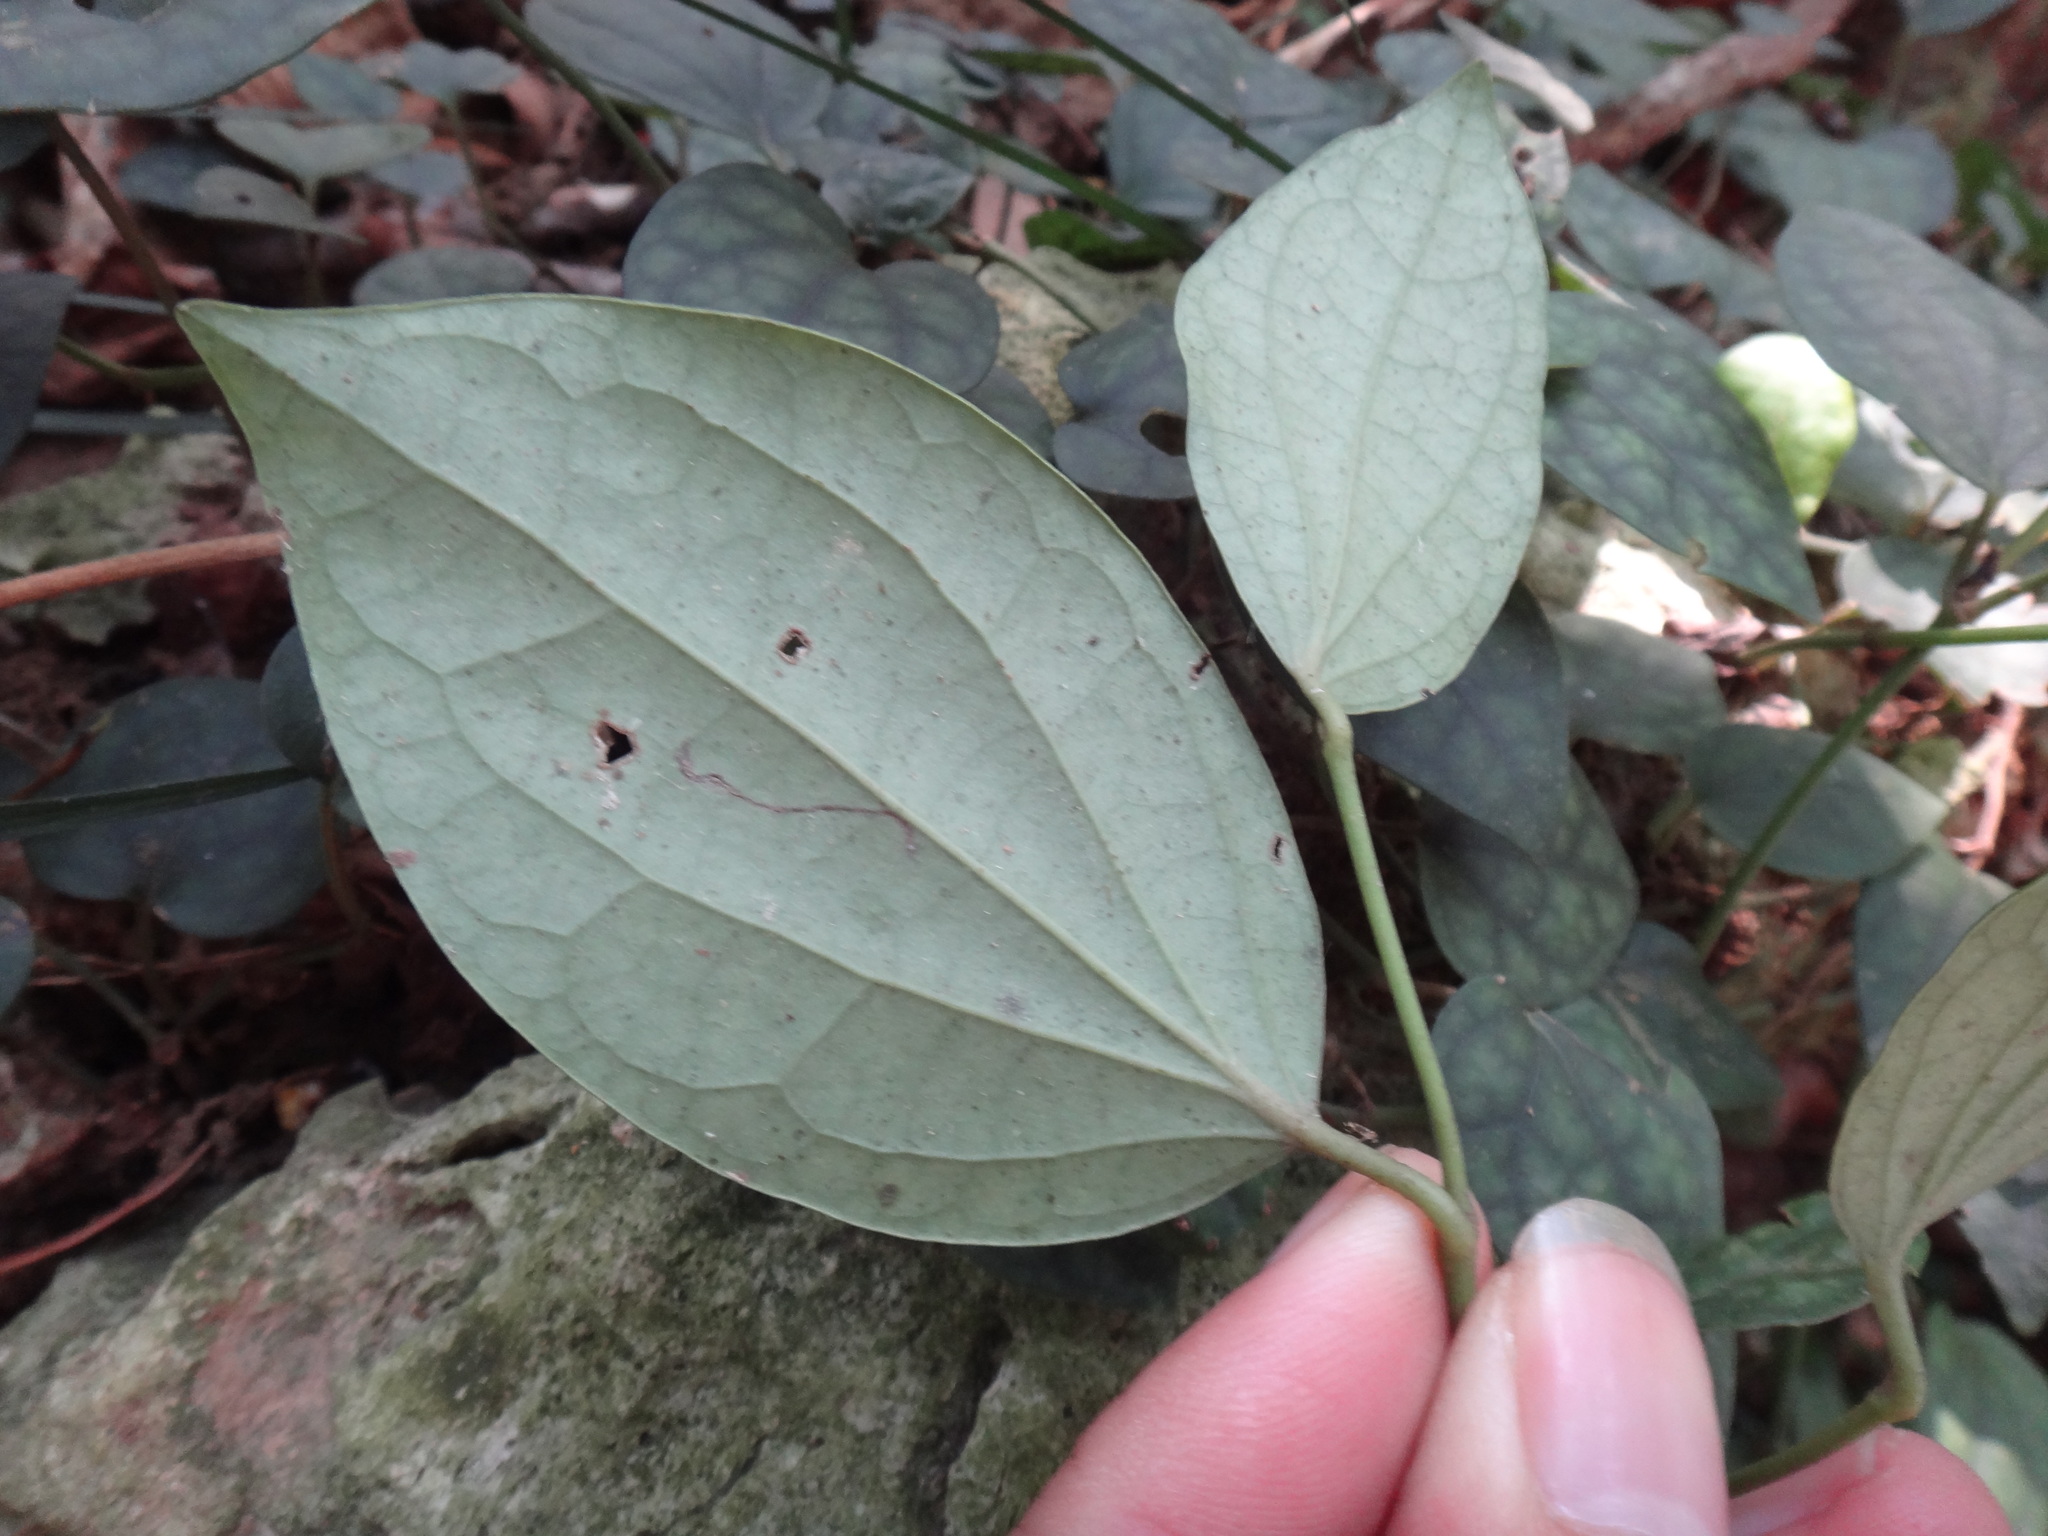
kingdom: Plantae
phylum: Tracheophyta
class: Magnoliopsida
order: Piperales
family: Piperaceae
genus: Piper
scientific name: Piper kadsura
